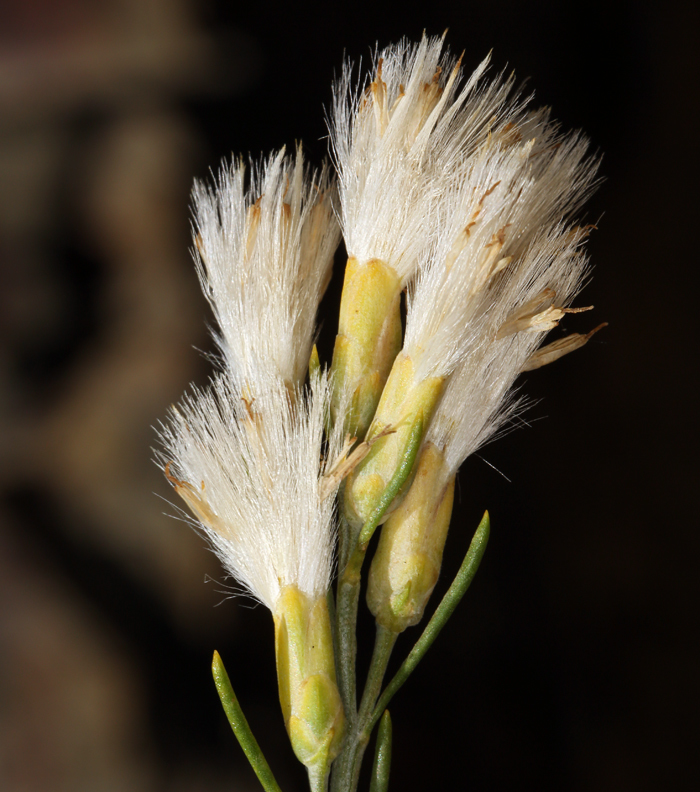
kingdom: Plantae
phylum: Tracheophyta
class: Magnoliopsida
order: Asterales
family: Asteraceae
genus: Lepidospartum
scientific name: Lepidospartum latisquamum
